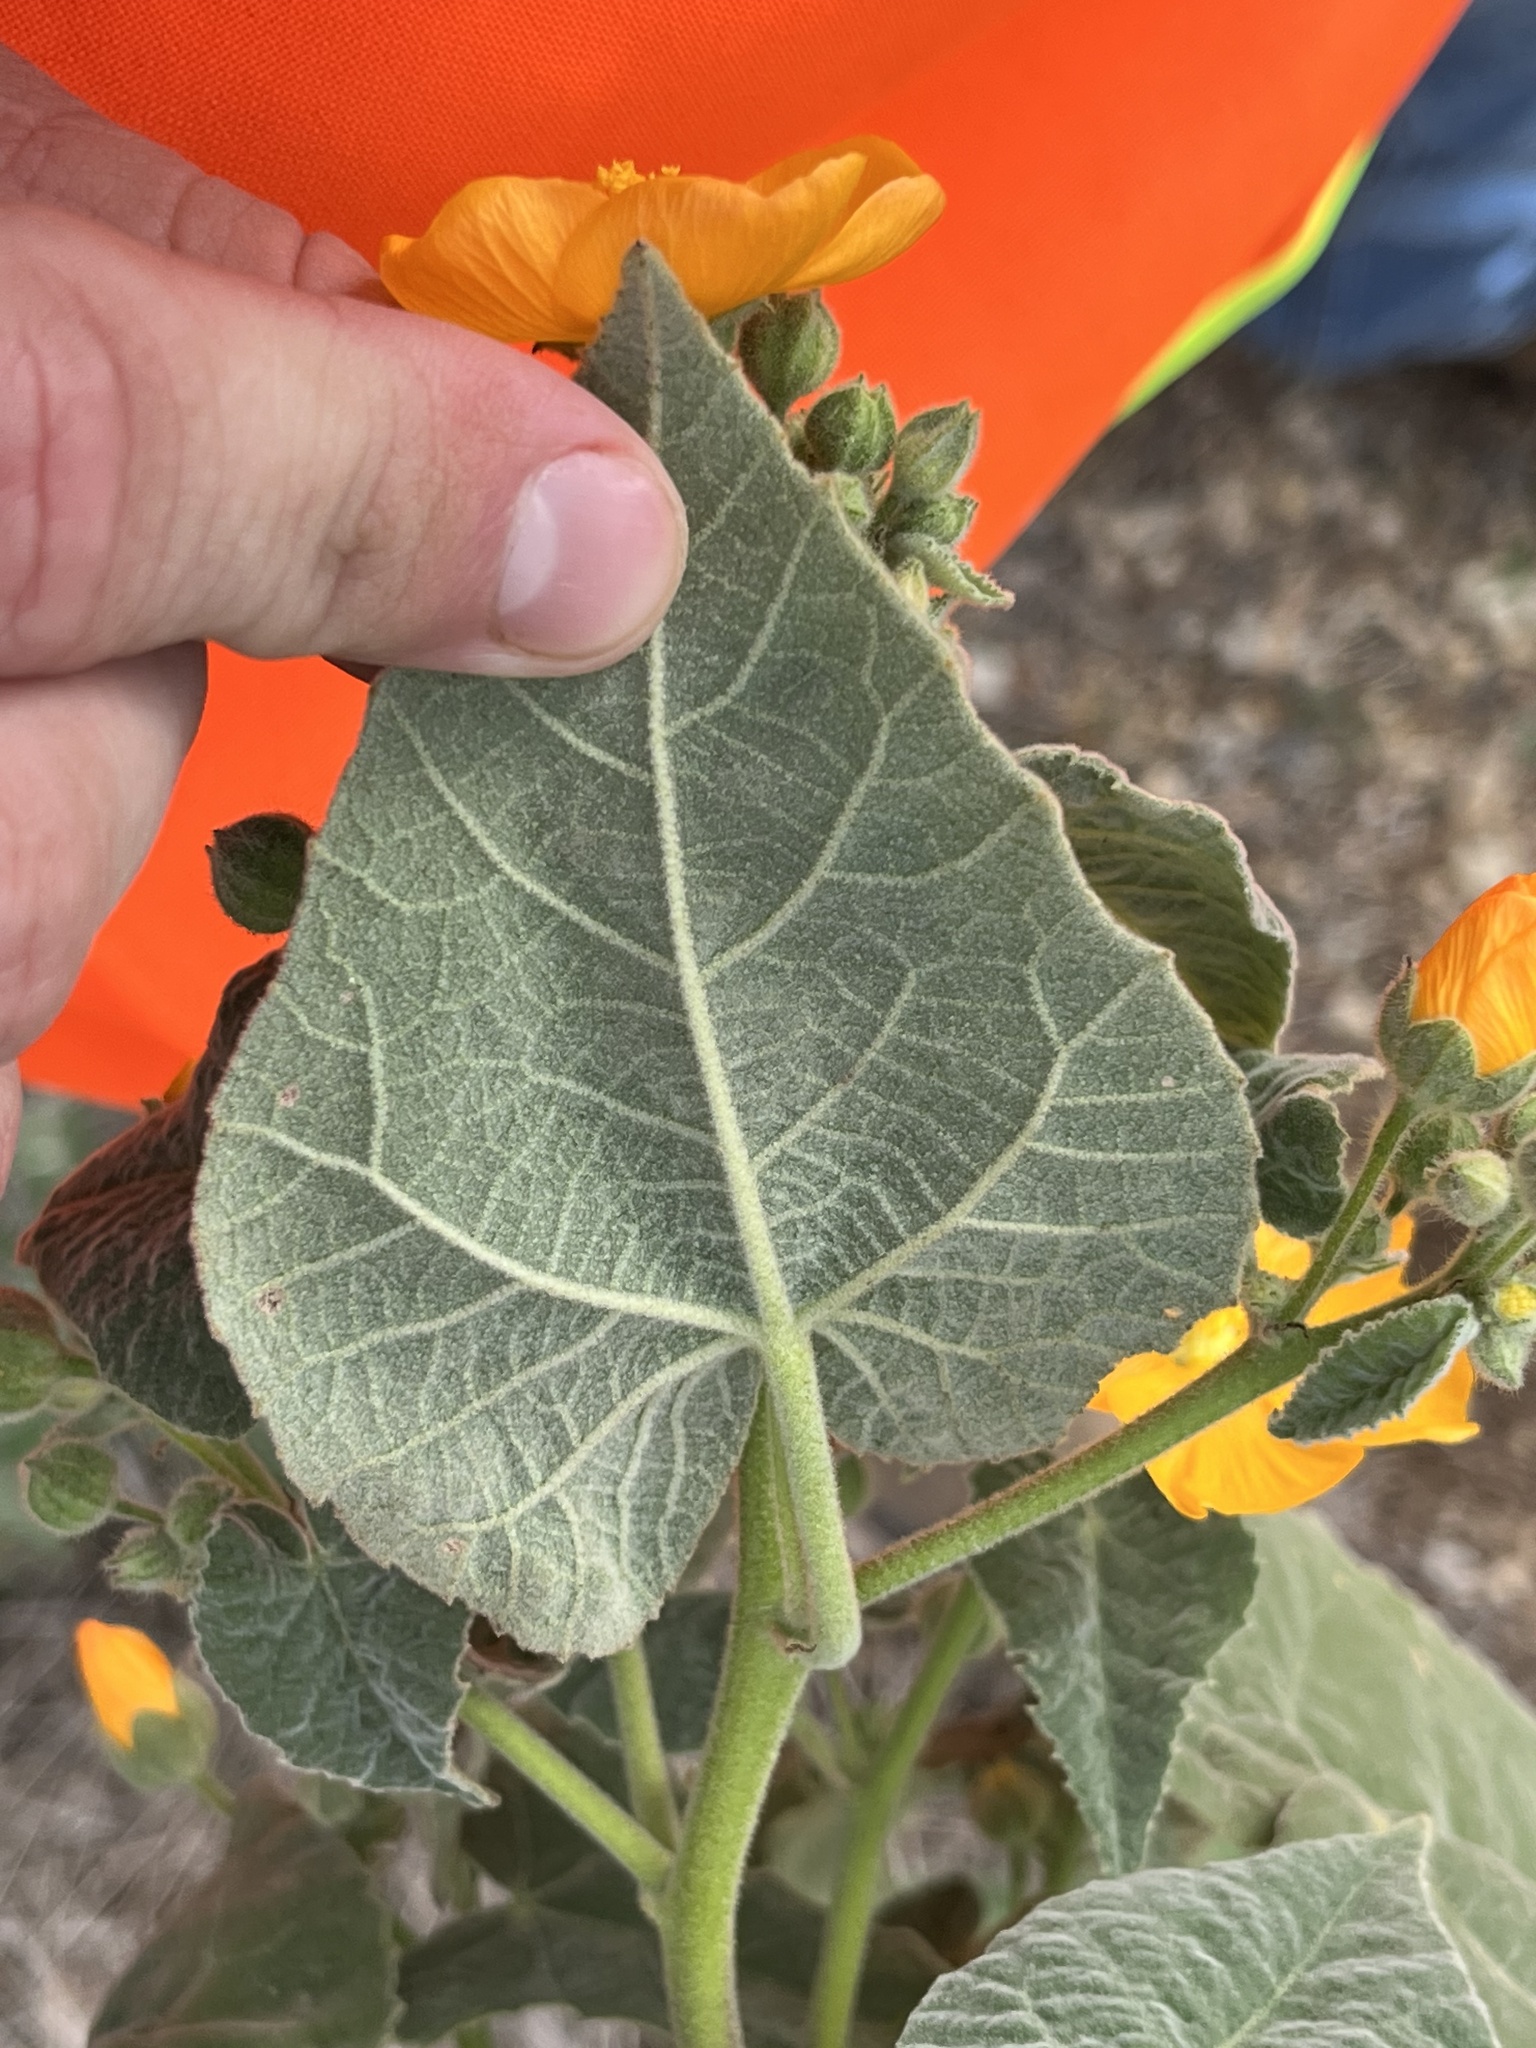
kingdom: Plantae
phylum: Tracheophyta
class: Magnoliopsida
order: Malvales
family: Malvaceae
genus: Allowissadula
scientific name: Allowissadula holosericea
